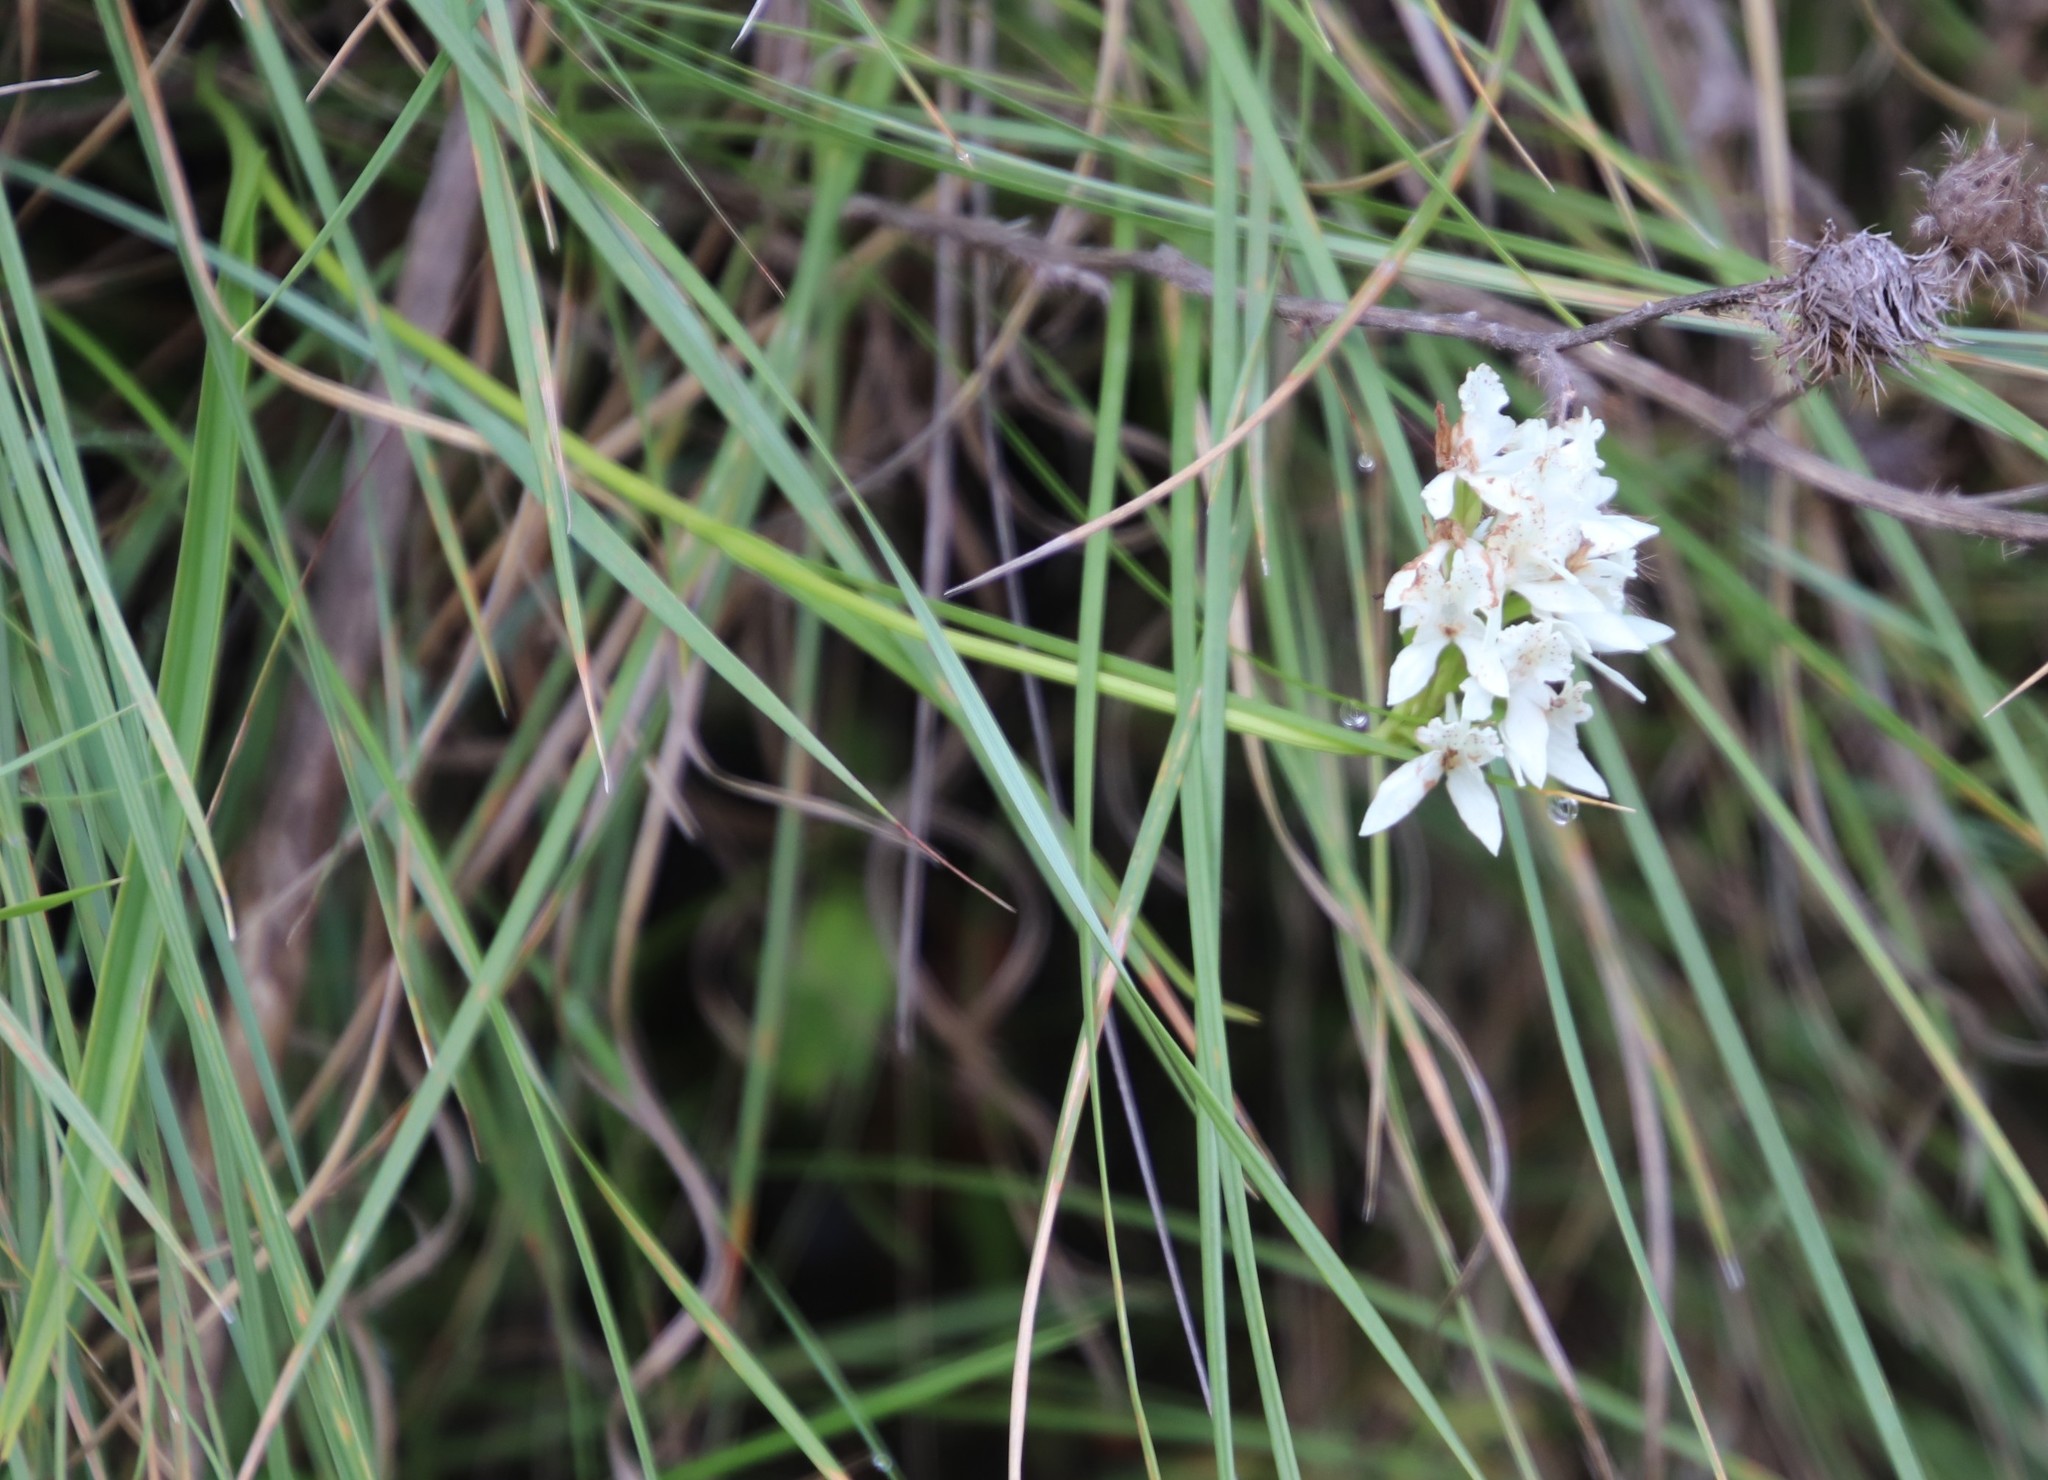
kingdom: Plantae
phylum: Tracheophyta
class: Liliopsida
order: Asparagales
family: Orchidaceae
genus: Brownleea
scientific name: Brownleea galpinii
